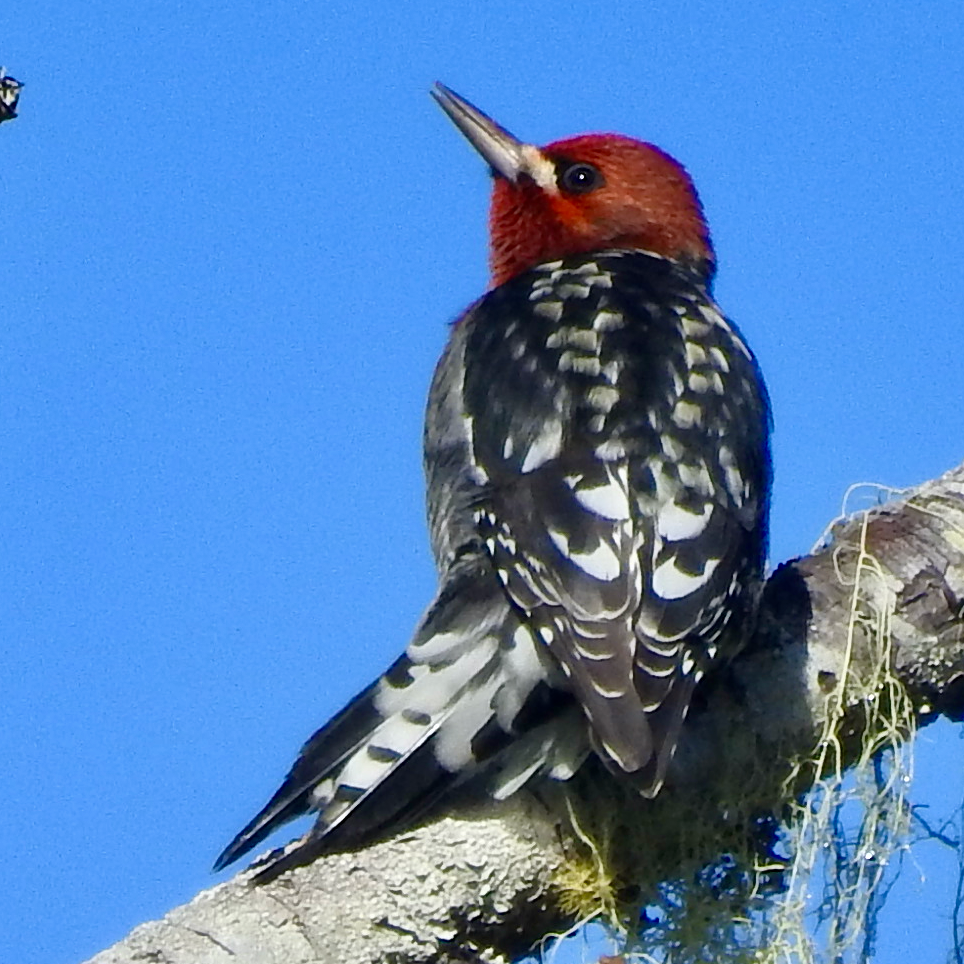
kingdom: Animalia
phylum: Chordata
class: Aves
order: Piciformes
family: Picidae
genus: Sphyrapicus
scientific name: Sphyrapicus ruber
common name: Red-breasted sapsucker
